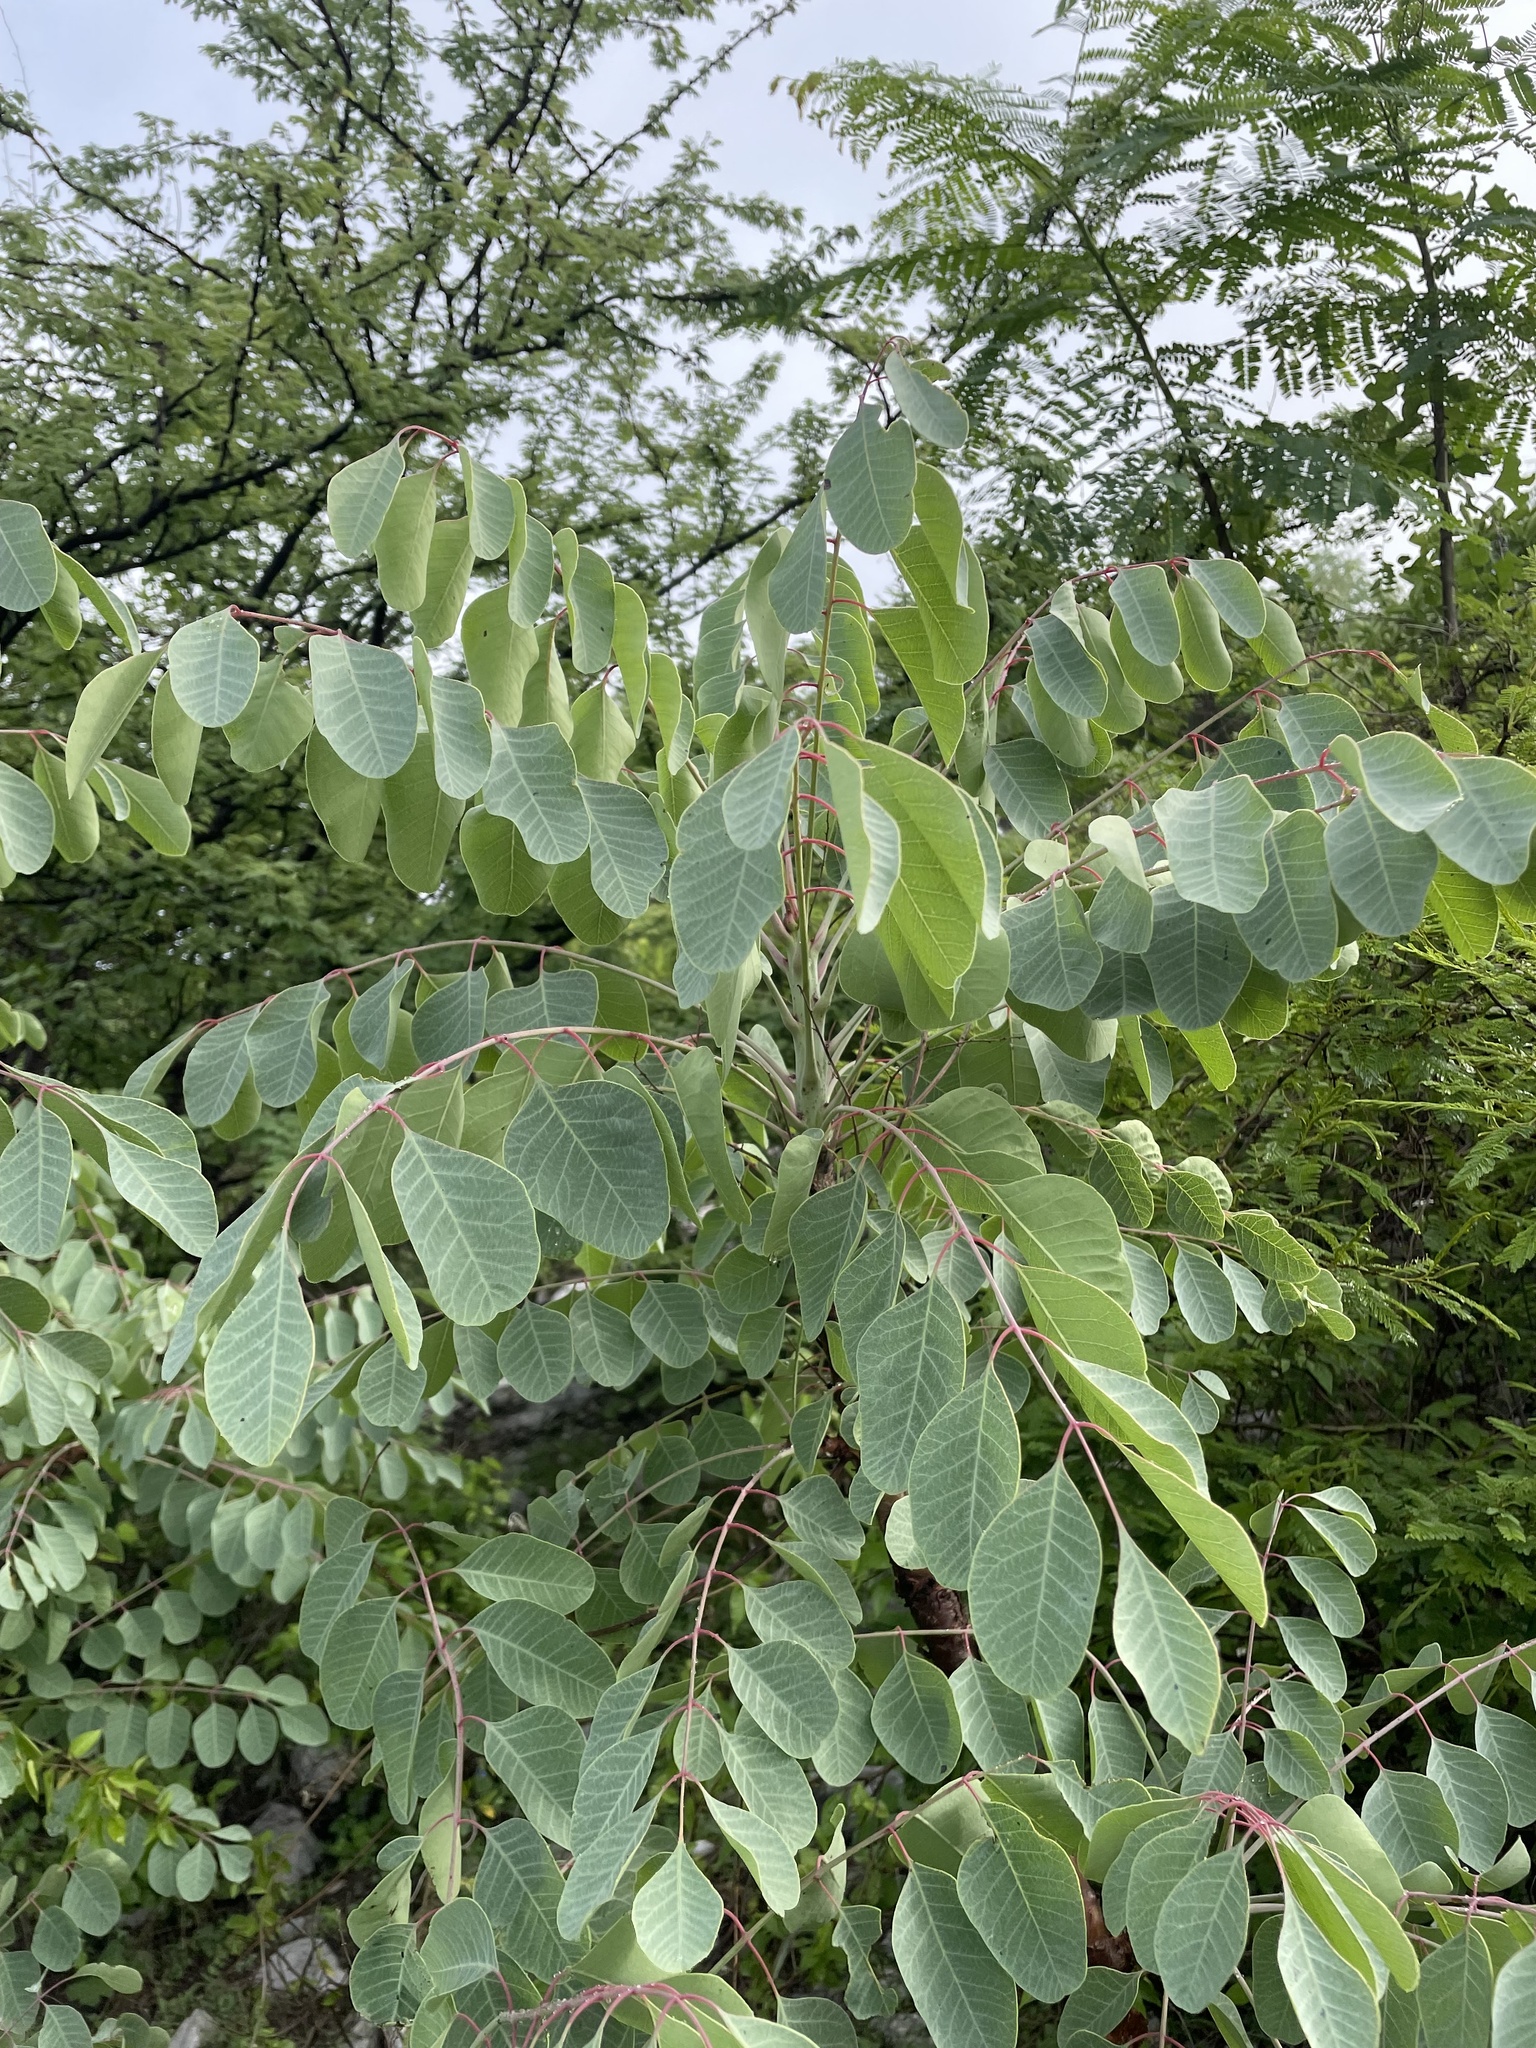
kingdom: Plantae
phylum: Tracheophyta
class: Magnoliopsida
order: Sapindales
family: Anacardiaceae
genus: Pseudosmodingium
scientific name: Pseudosmodingium perniciosum
